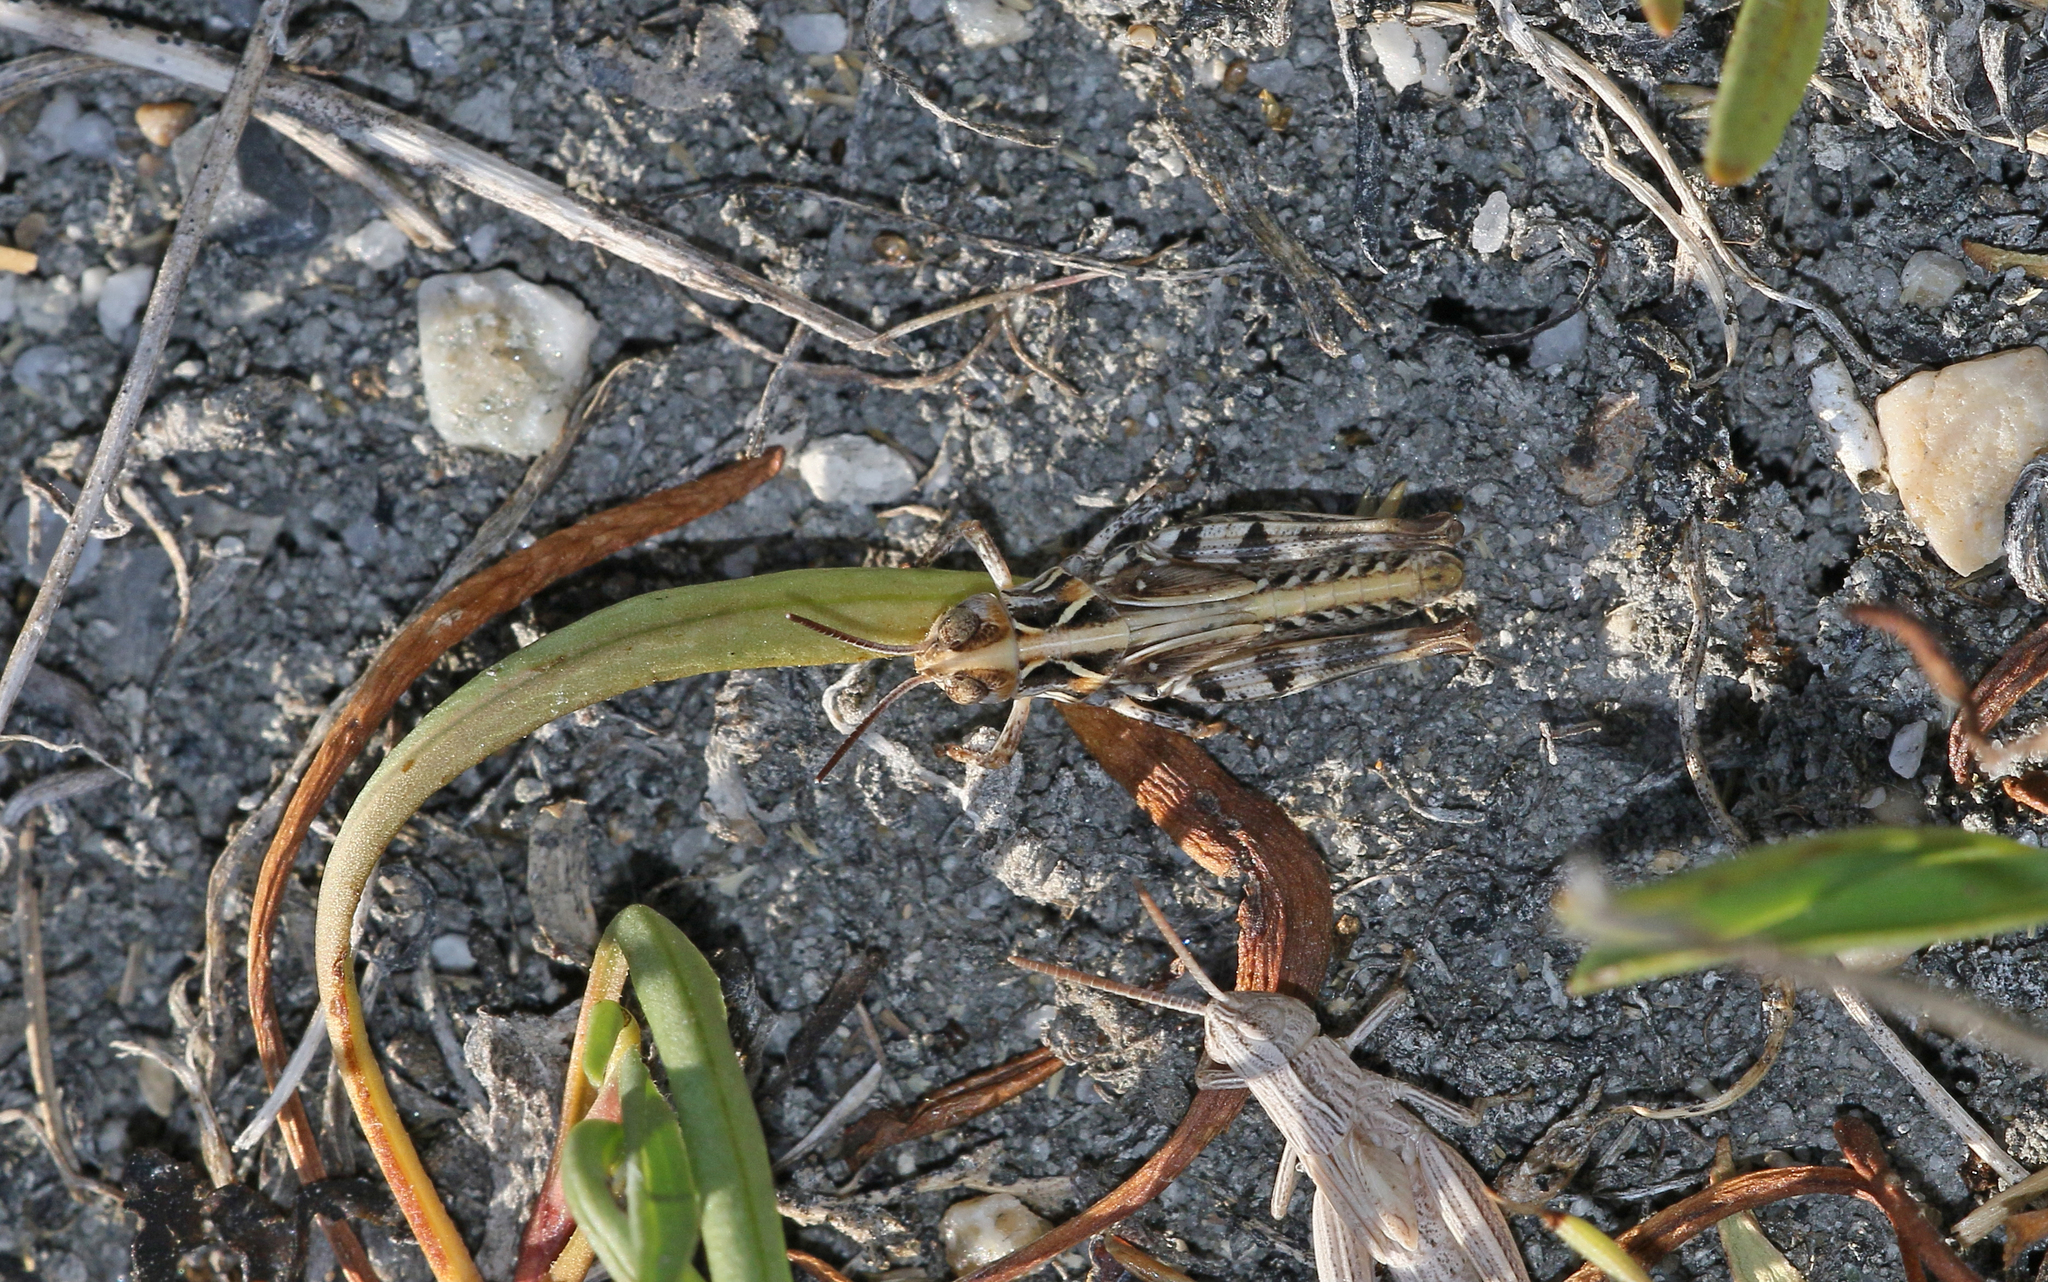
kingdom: Animalia
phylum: Arthropoda
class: Insecta
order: Orthoptera
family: Acrididae
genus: Dociostaurus
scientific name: Dociostaurus brevicollis
